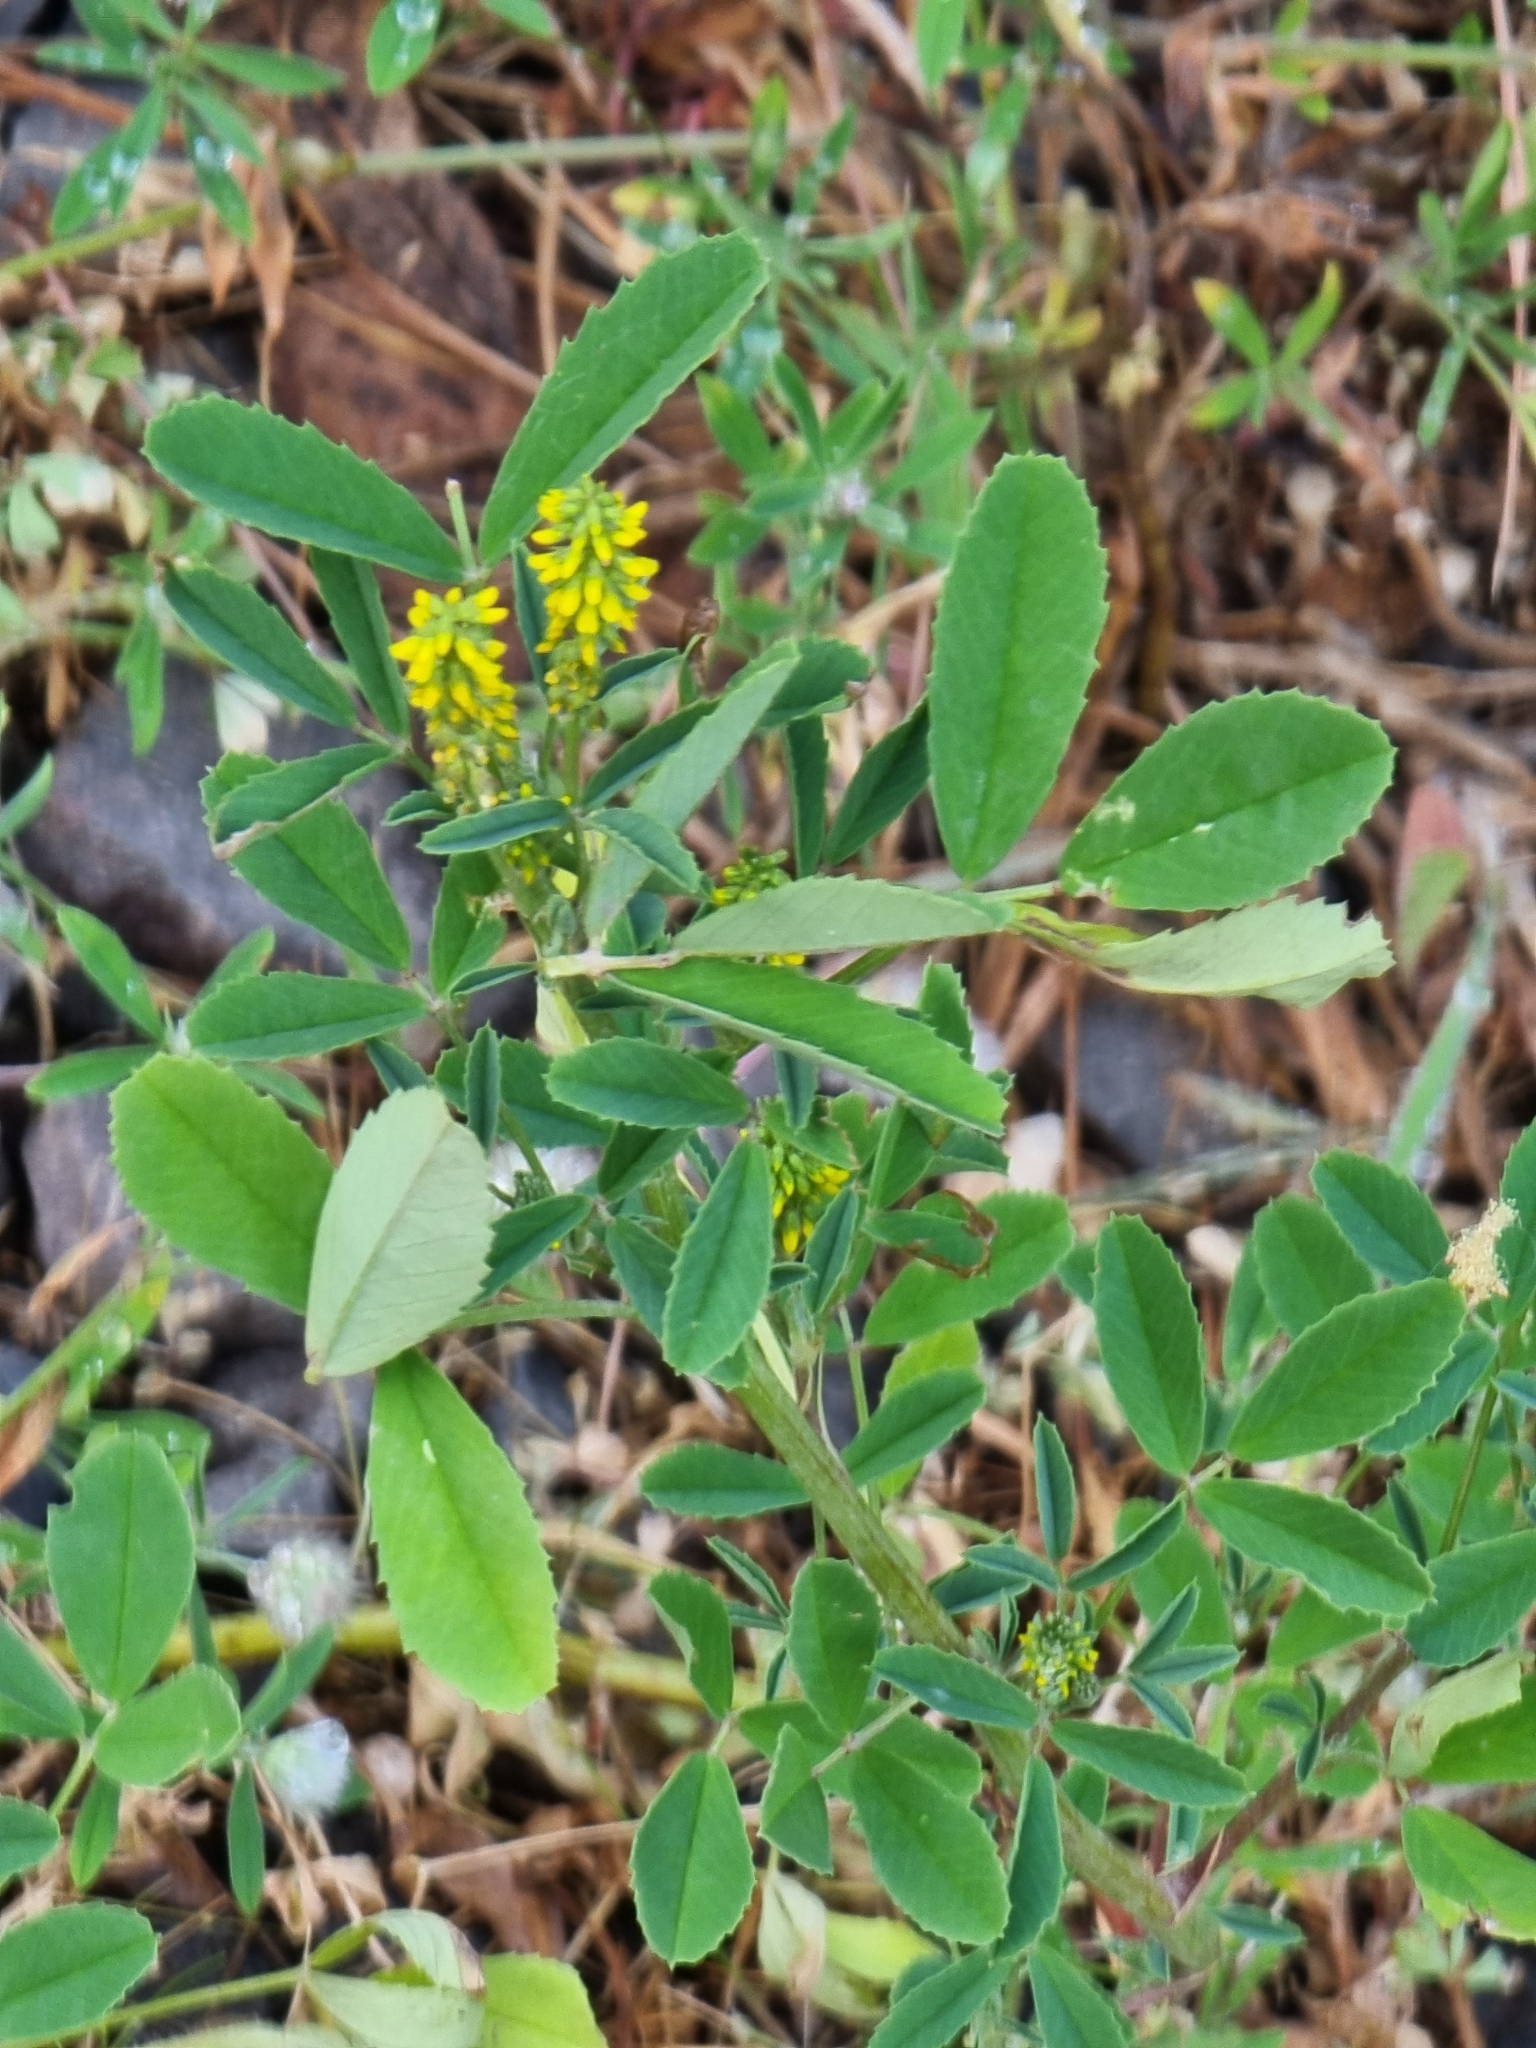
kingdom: Plantae
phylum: Tracheophyta
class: Magnoliopsida
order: Fabales
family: Fabaceae
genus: Melilotus
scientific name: Melilotus indicus
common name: Small melilot
